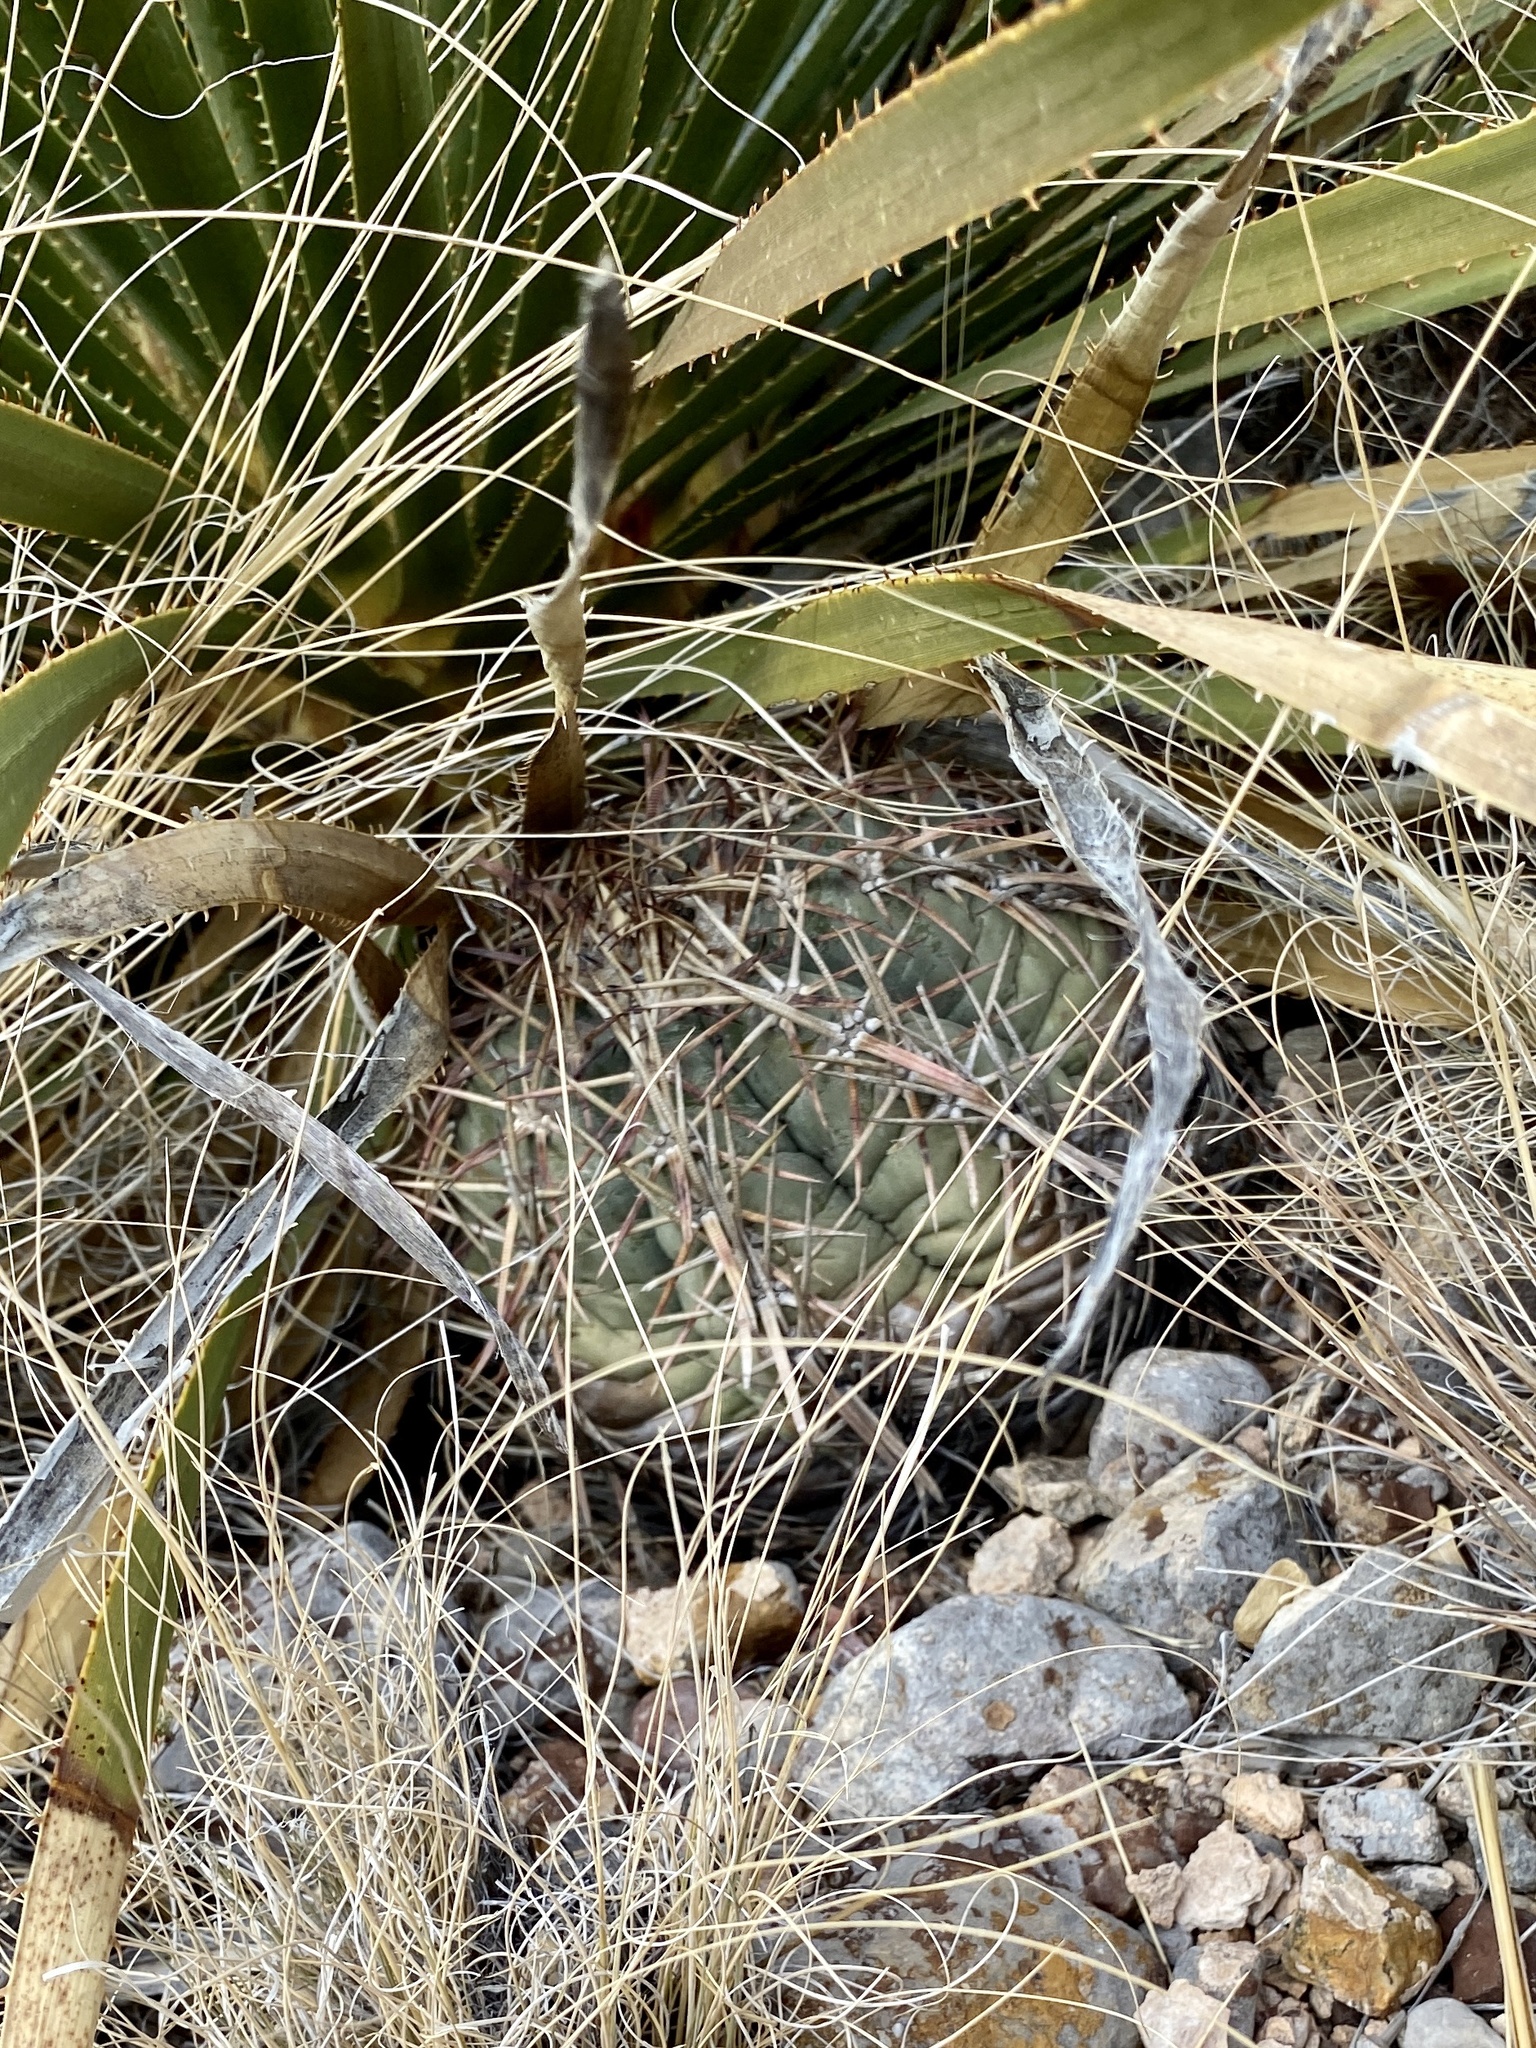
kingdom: Plantae
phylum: Tracheophyta
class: Magnoliopsida
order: Caryophyllales
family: Cactaceae
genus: Echinocactus
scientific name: Echinocactus horizonthalonius
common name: Devilshead
